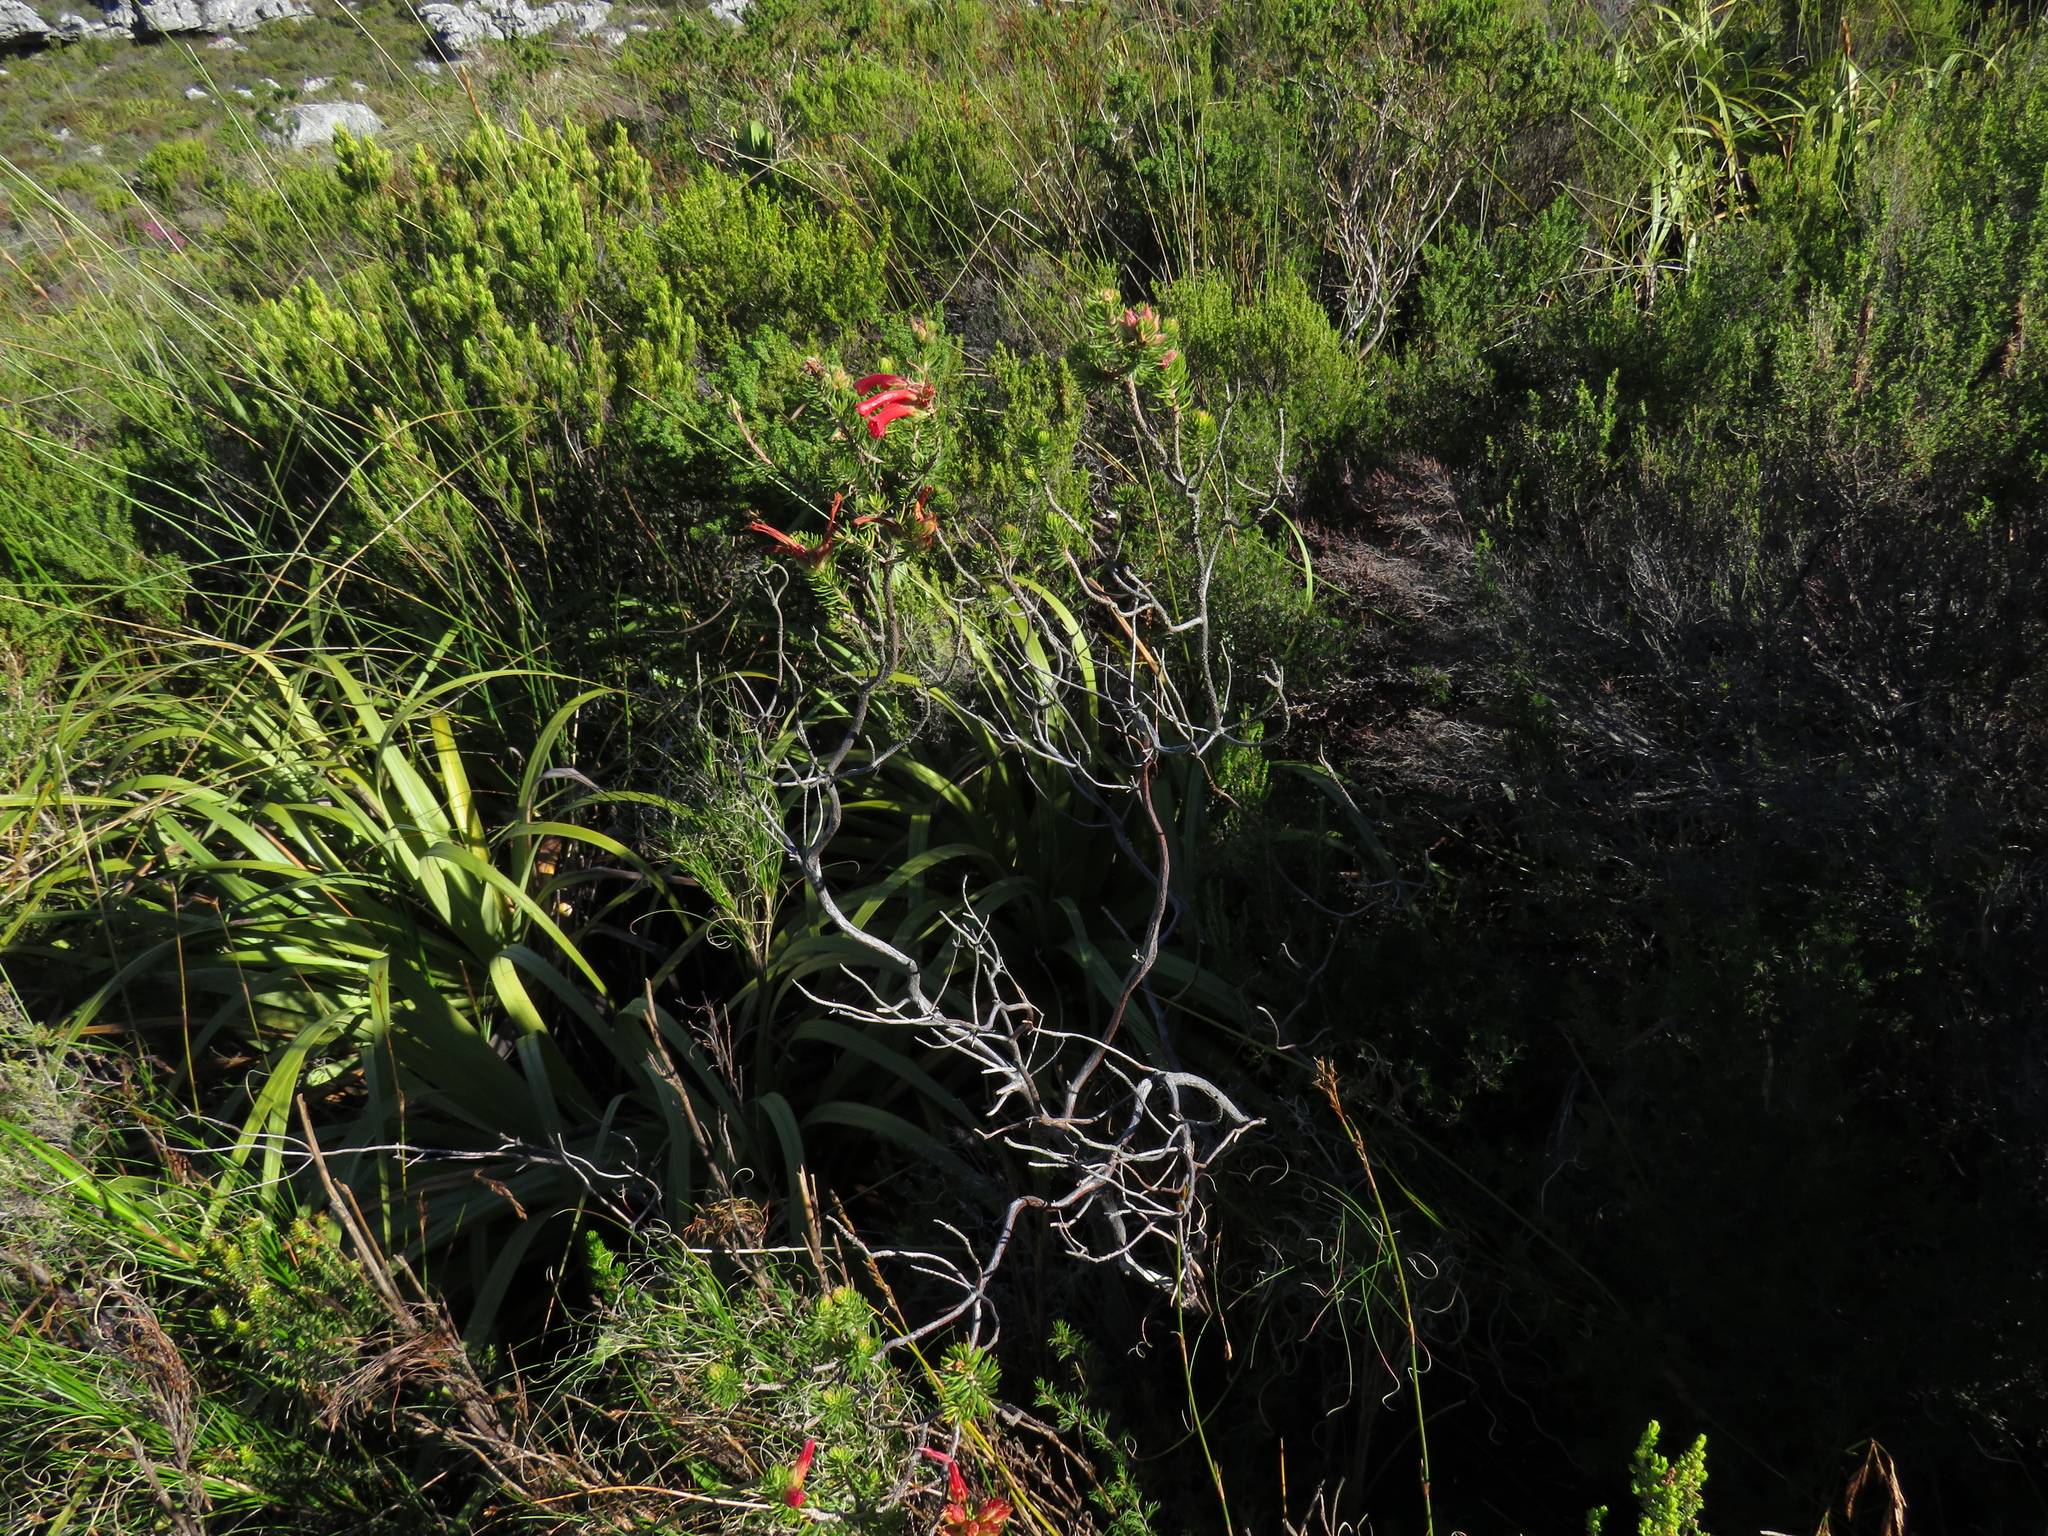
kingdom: Plantae
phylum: Tracheophyta
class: Magnoliopsida
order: Ericales
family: Ericaceae
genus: Erica
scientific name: Erica abietina
